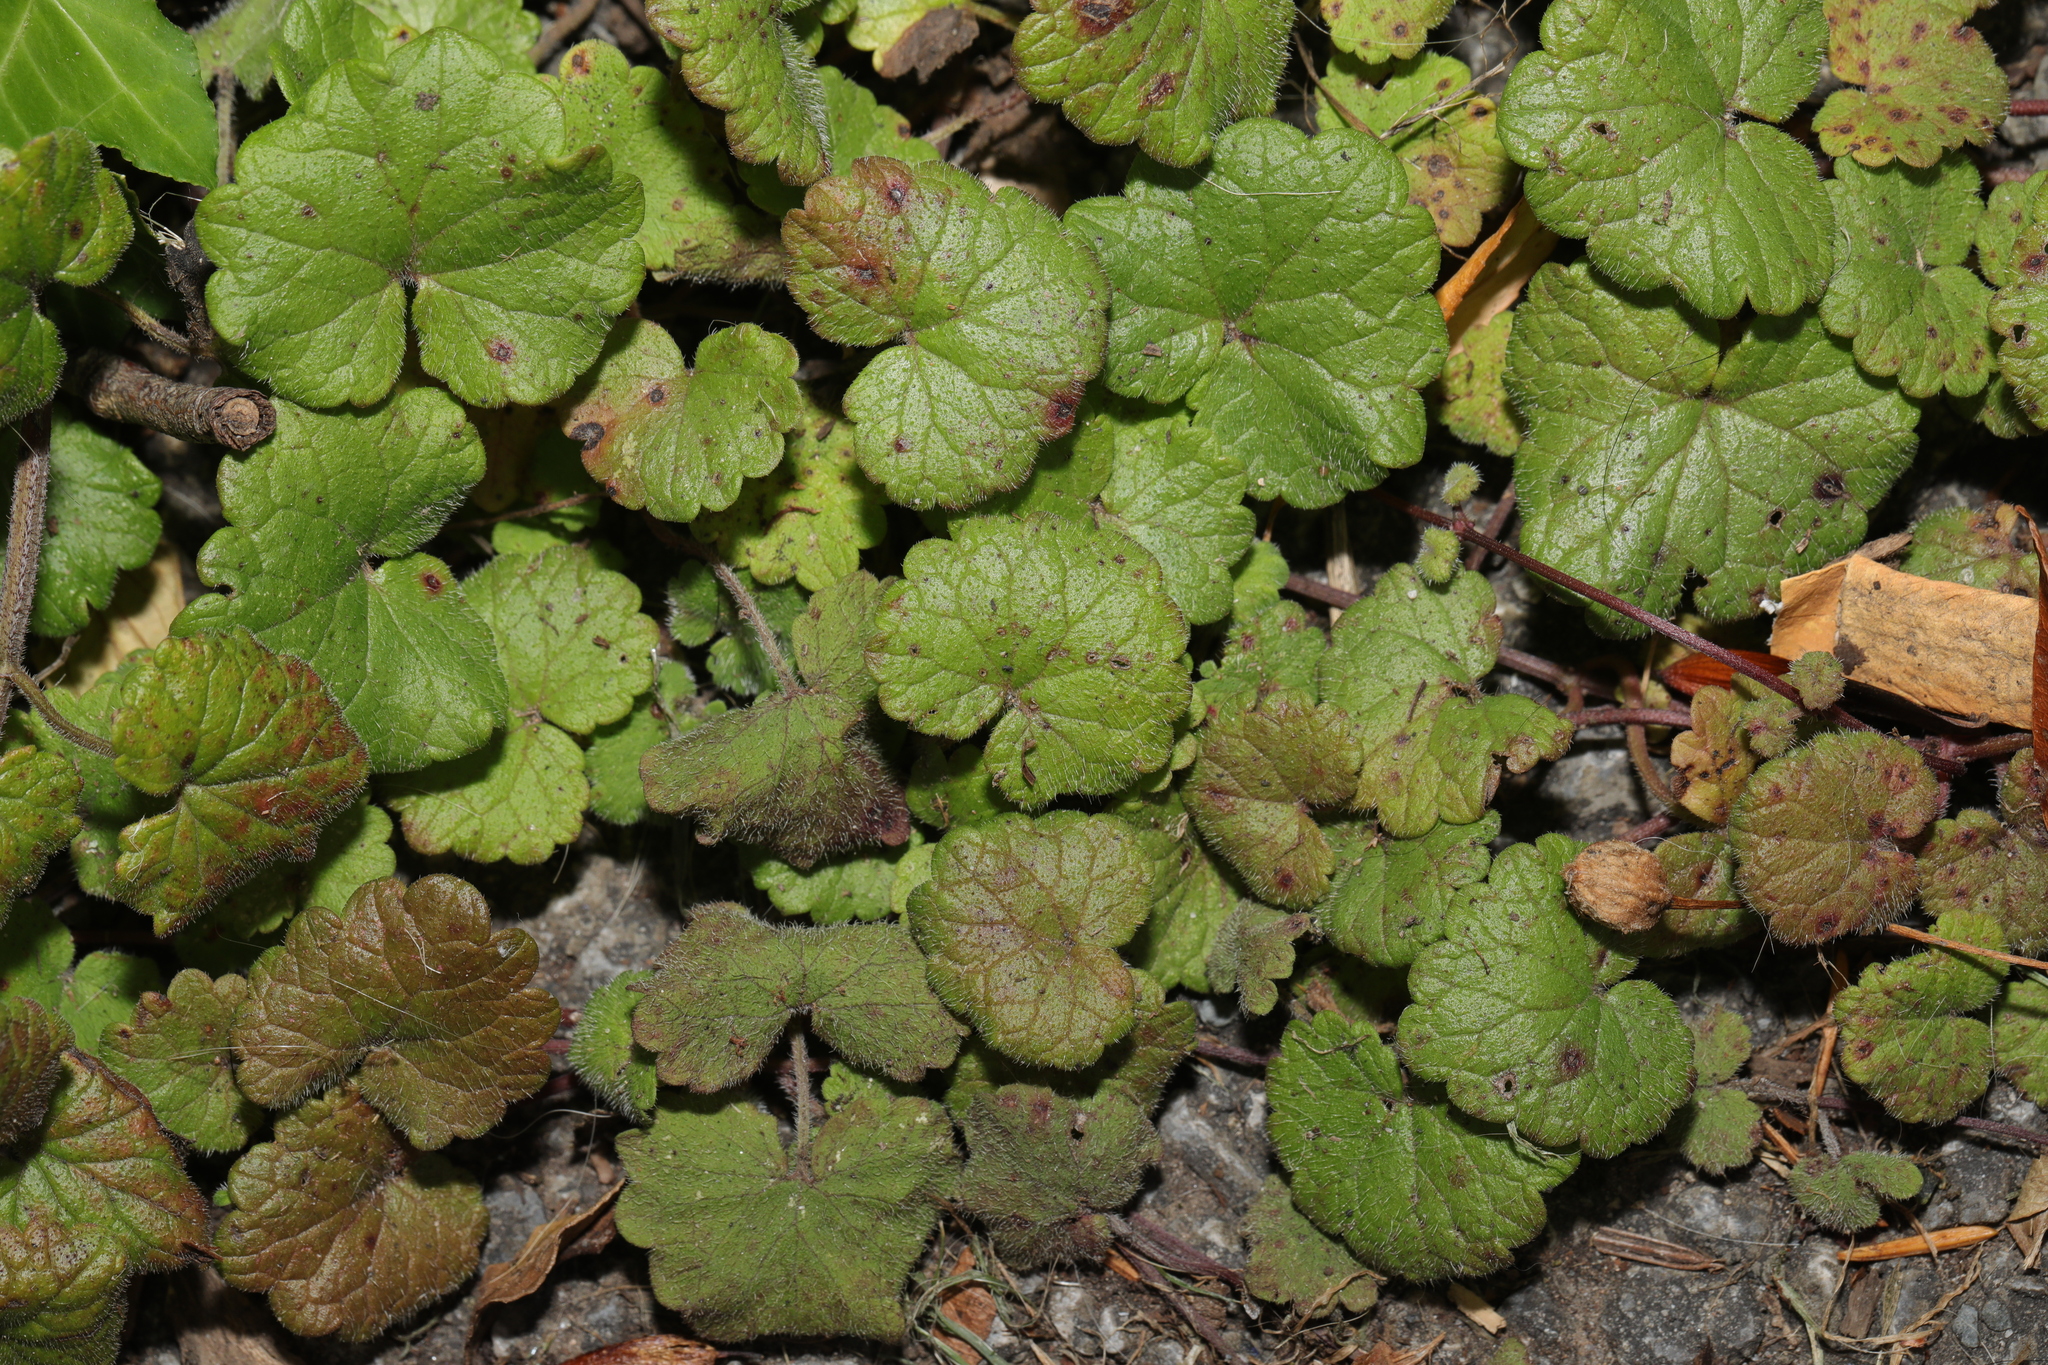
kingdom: Plantae
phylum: Tracheophyta
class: Magnoliopsida
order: Lamiales
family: Lamiaceae
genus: Glechoma
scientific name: Glechoma hederacea
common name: Ground ivy
